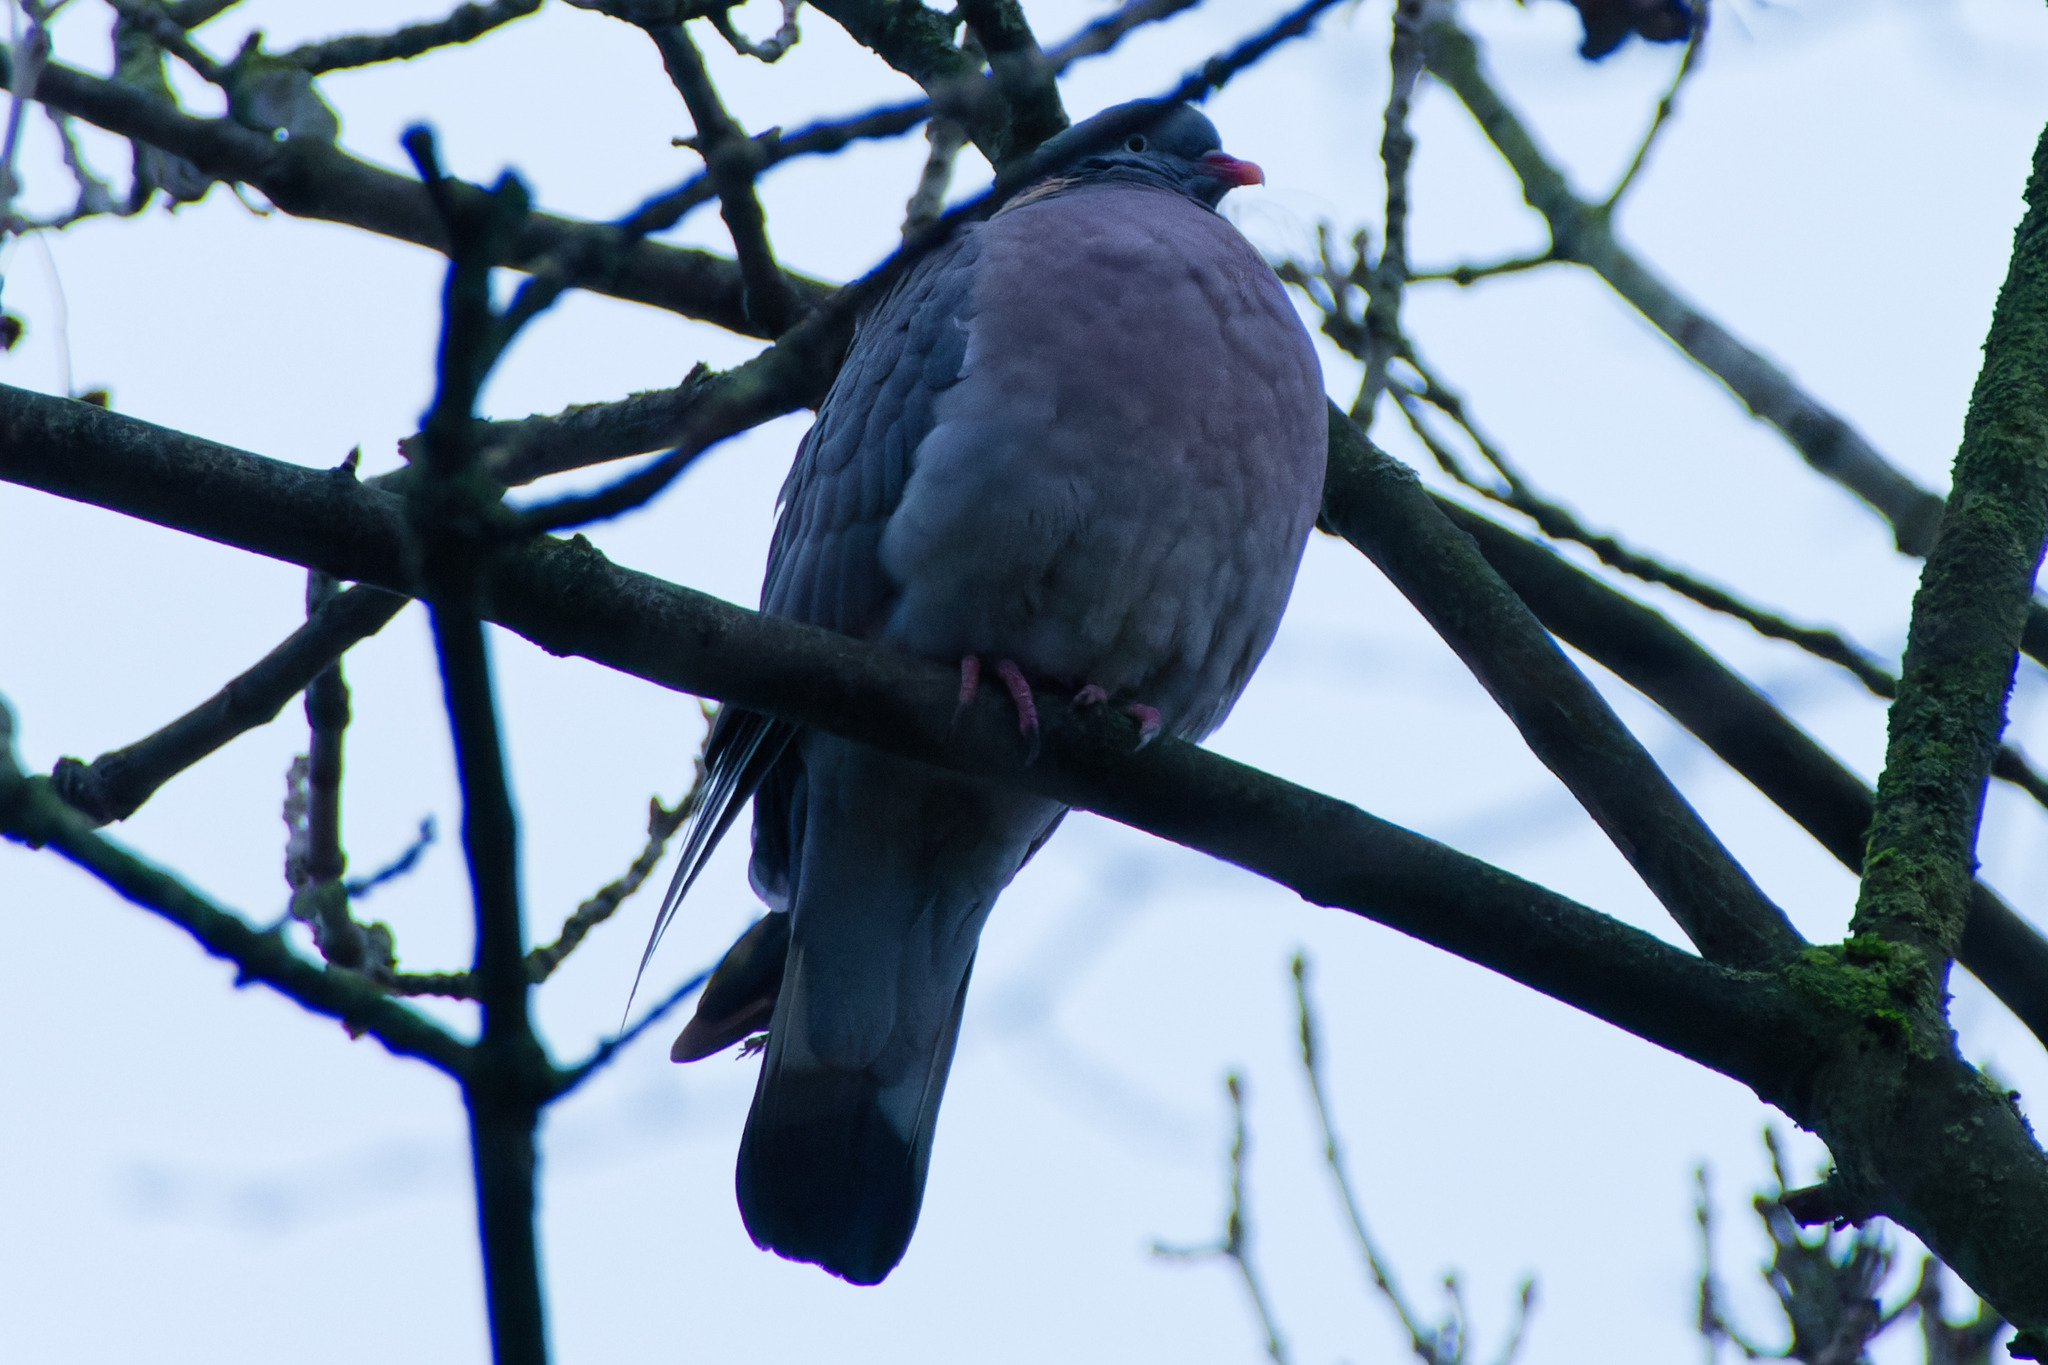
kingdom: Animalia
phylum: Chordata
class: Aves
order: Columbiformes
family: Columbidae
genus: Columba
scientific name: Columba palumbus
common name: Common wood pigeon
